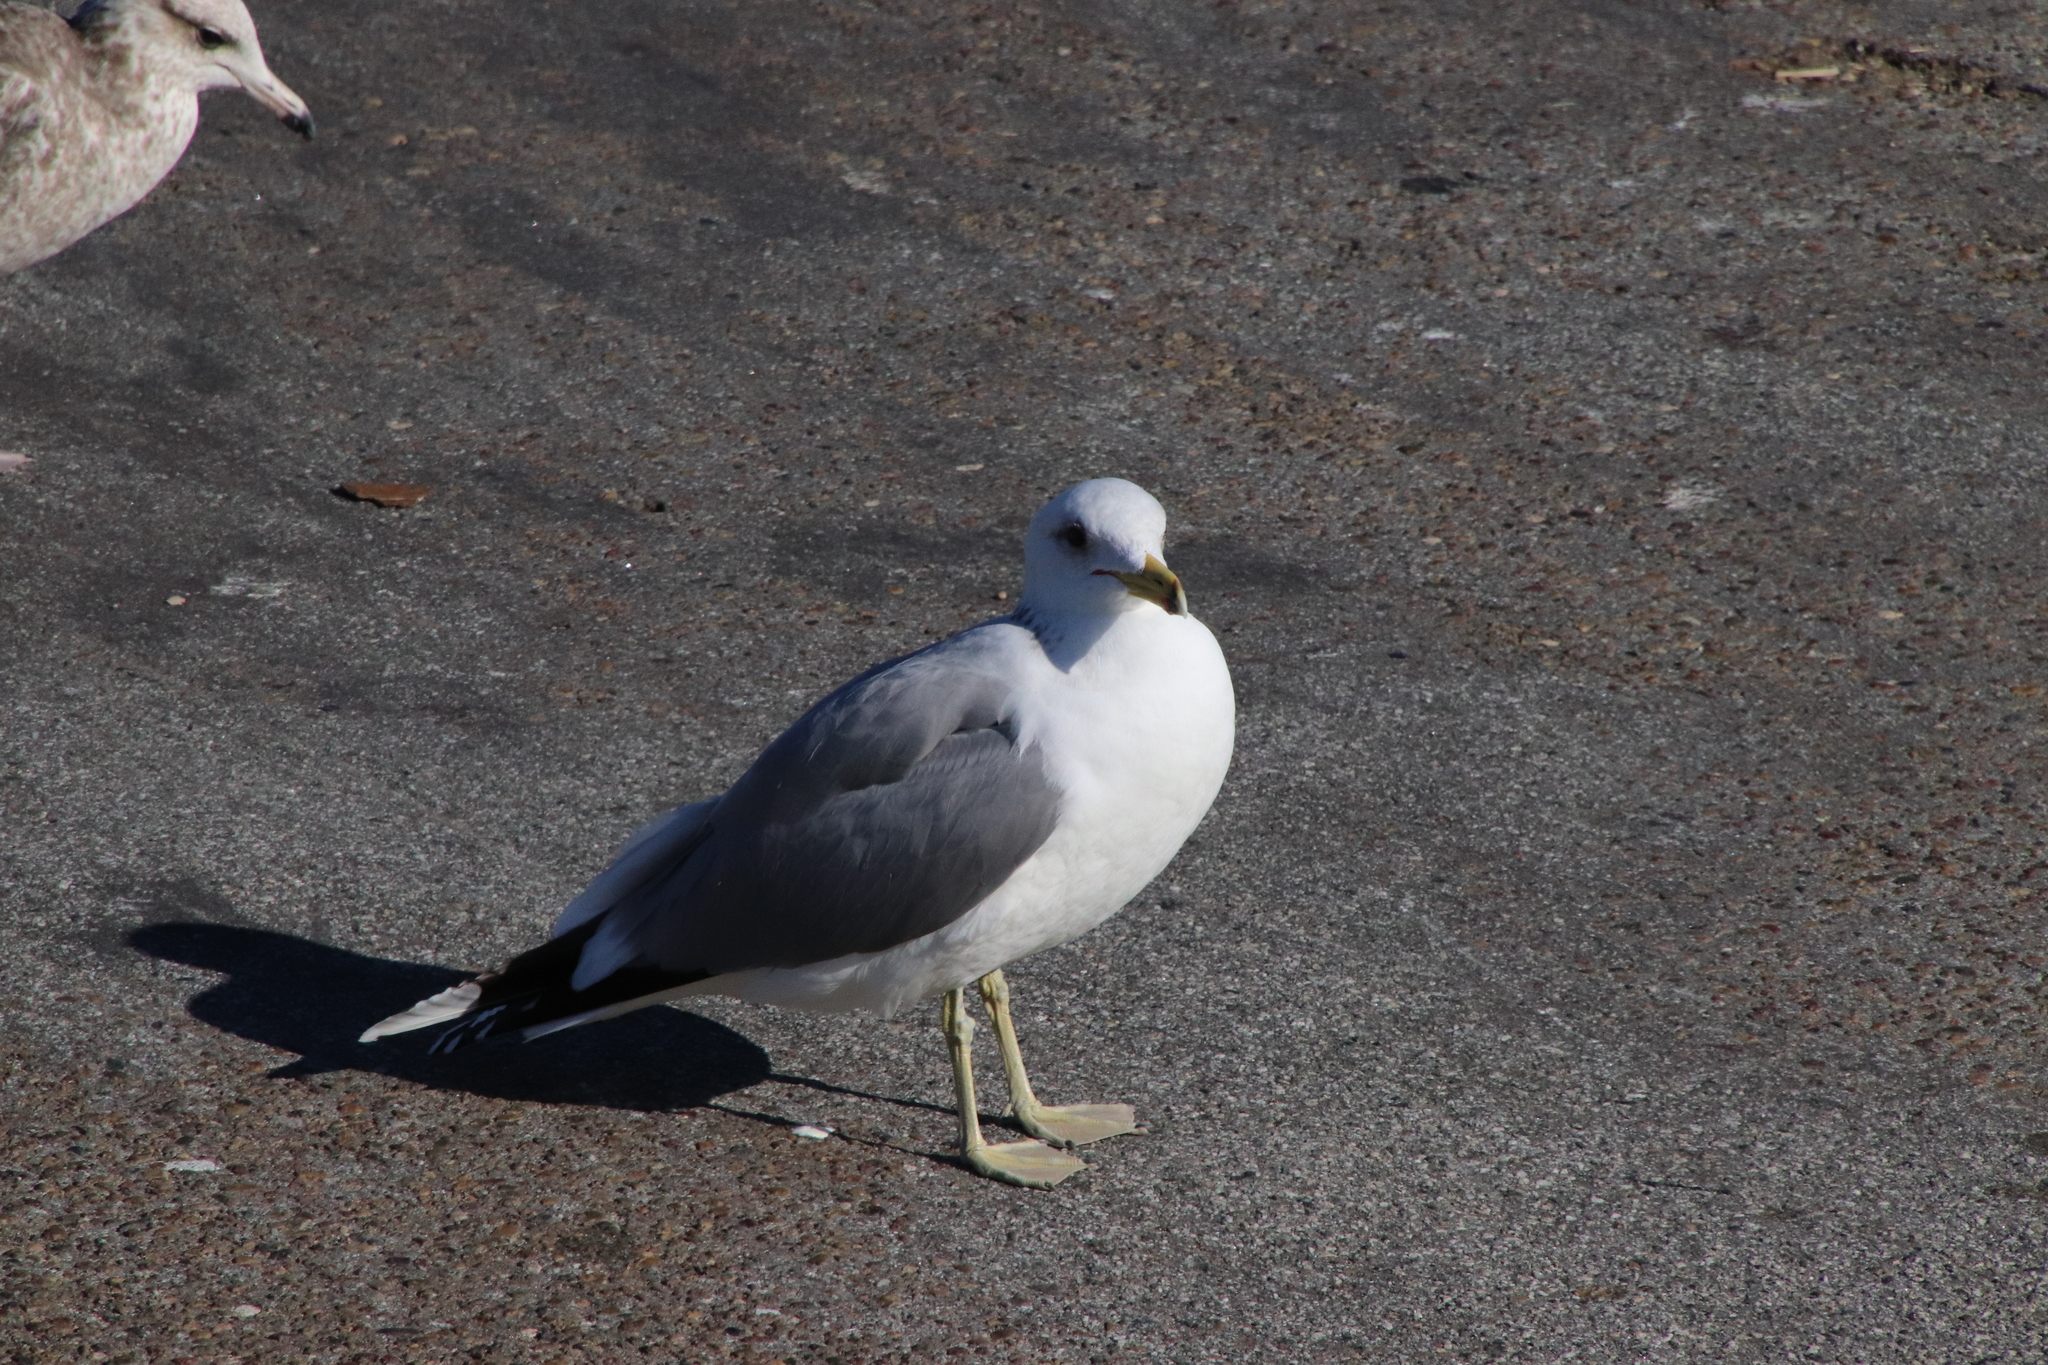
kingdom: Animalia
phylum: Chordata
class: Aves
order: Charadriiformes
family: Laridae
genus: Larus
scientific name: Larus californicus
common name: California gull
